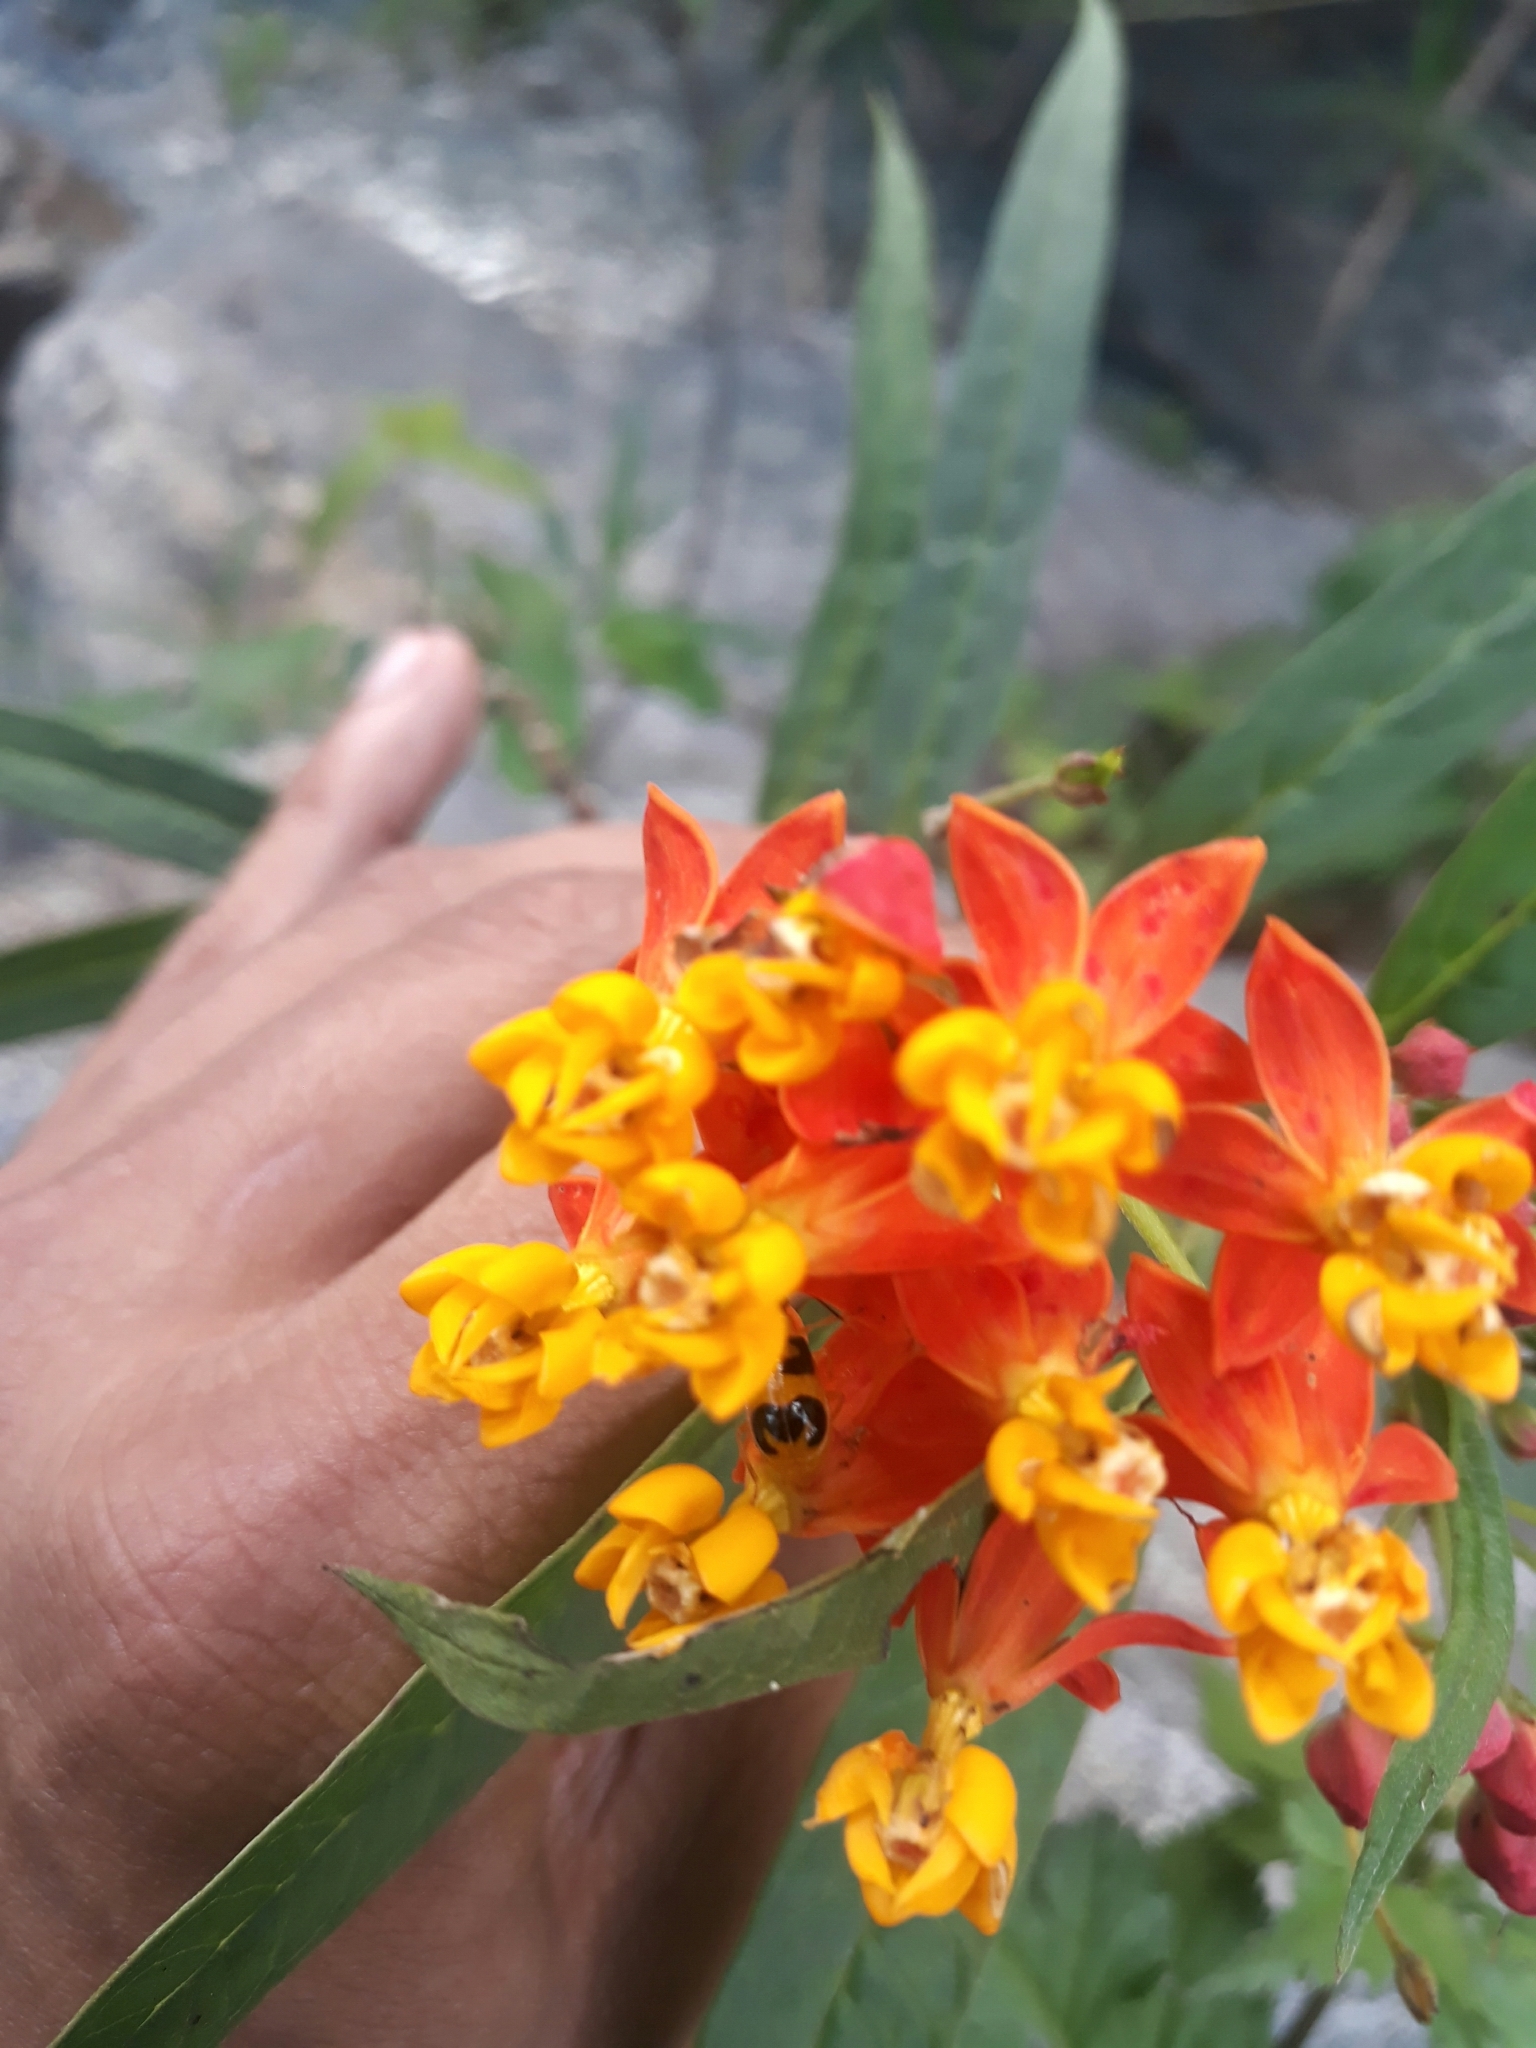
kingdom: Plantae
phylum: Tracheophyta
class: Magnoliopsida
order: Gentianales
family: Apocynaceae
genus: Asclepias
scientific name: Asclepias curassavica
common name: Bloodflower
